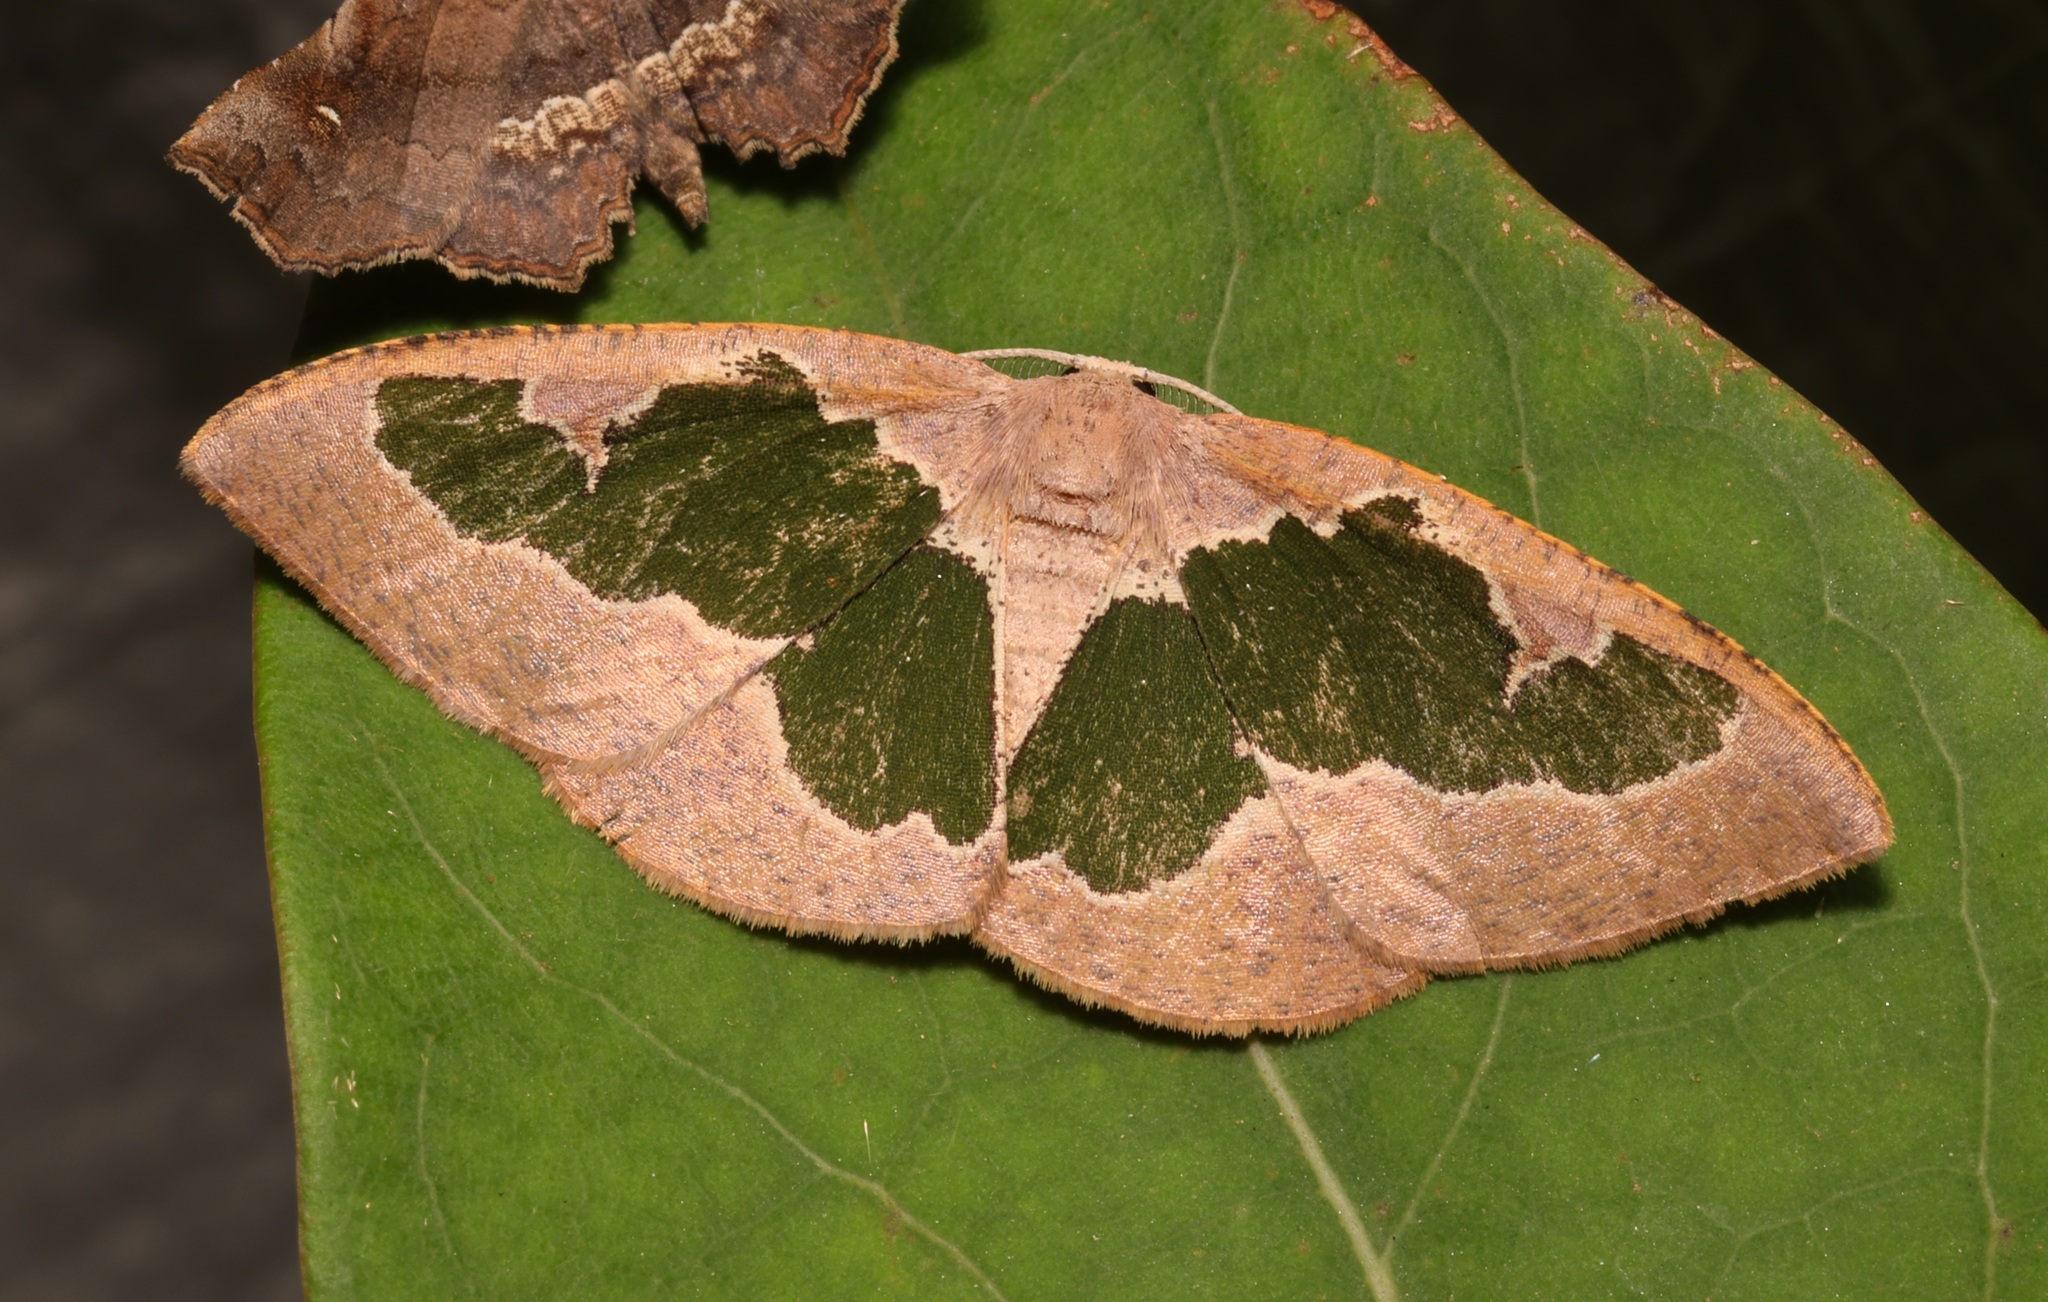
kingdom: Animalia
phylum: Arthropoda
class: Insecta
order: Lepidoptera
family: Geometridae
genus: Celenna
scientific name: Celenna festivaria
